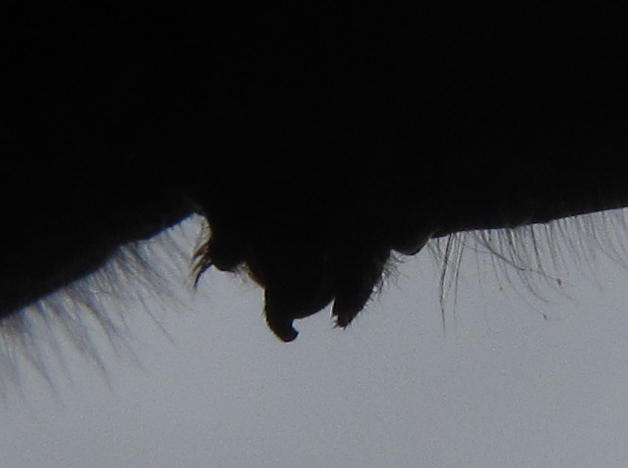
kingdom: Animalia
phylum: Arthropoda
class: Insecta
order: Odonata
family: Libellulidae
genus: Trithemis
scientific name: Trithemis dorsalis
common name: Highland dropwing
